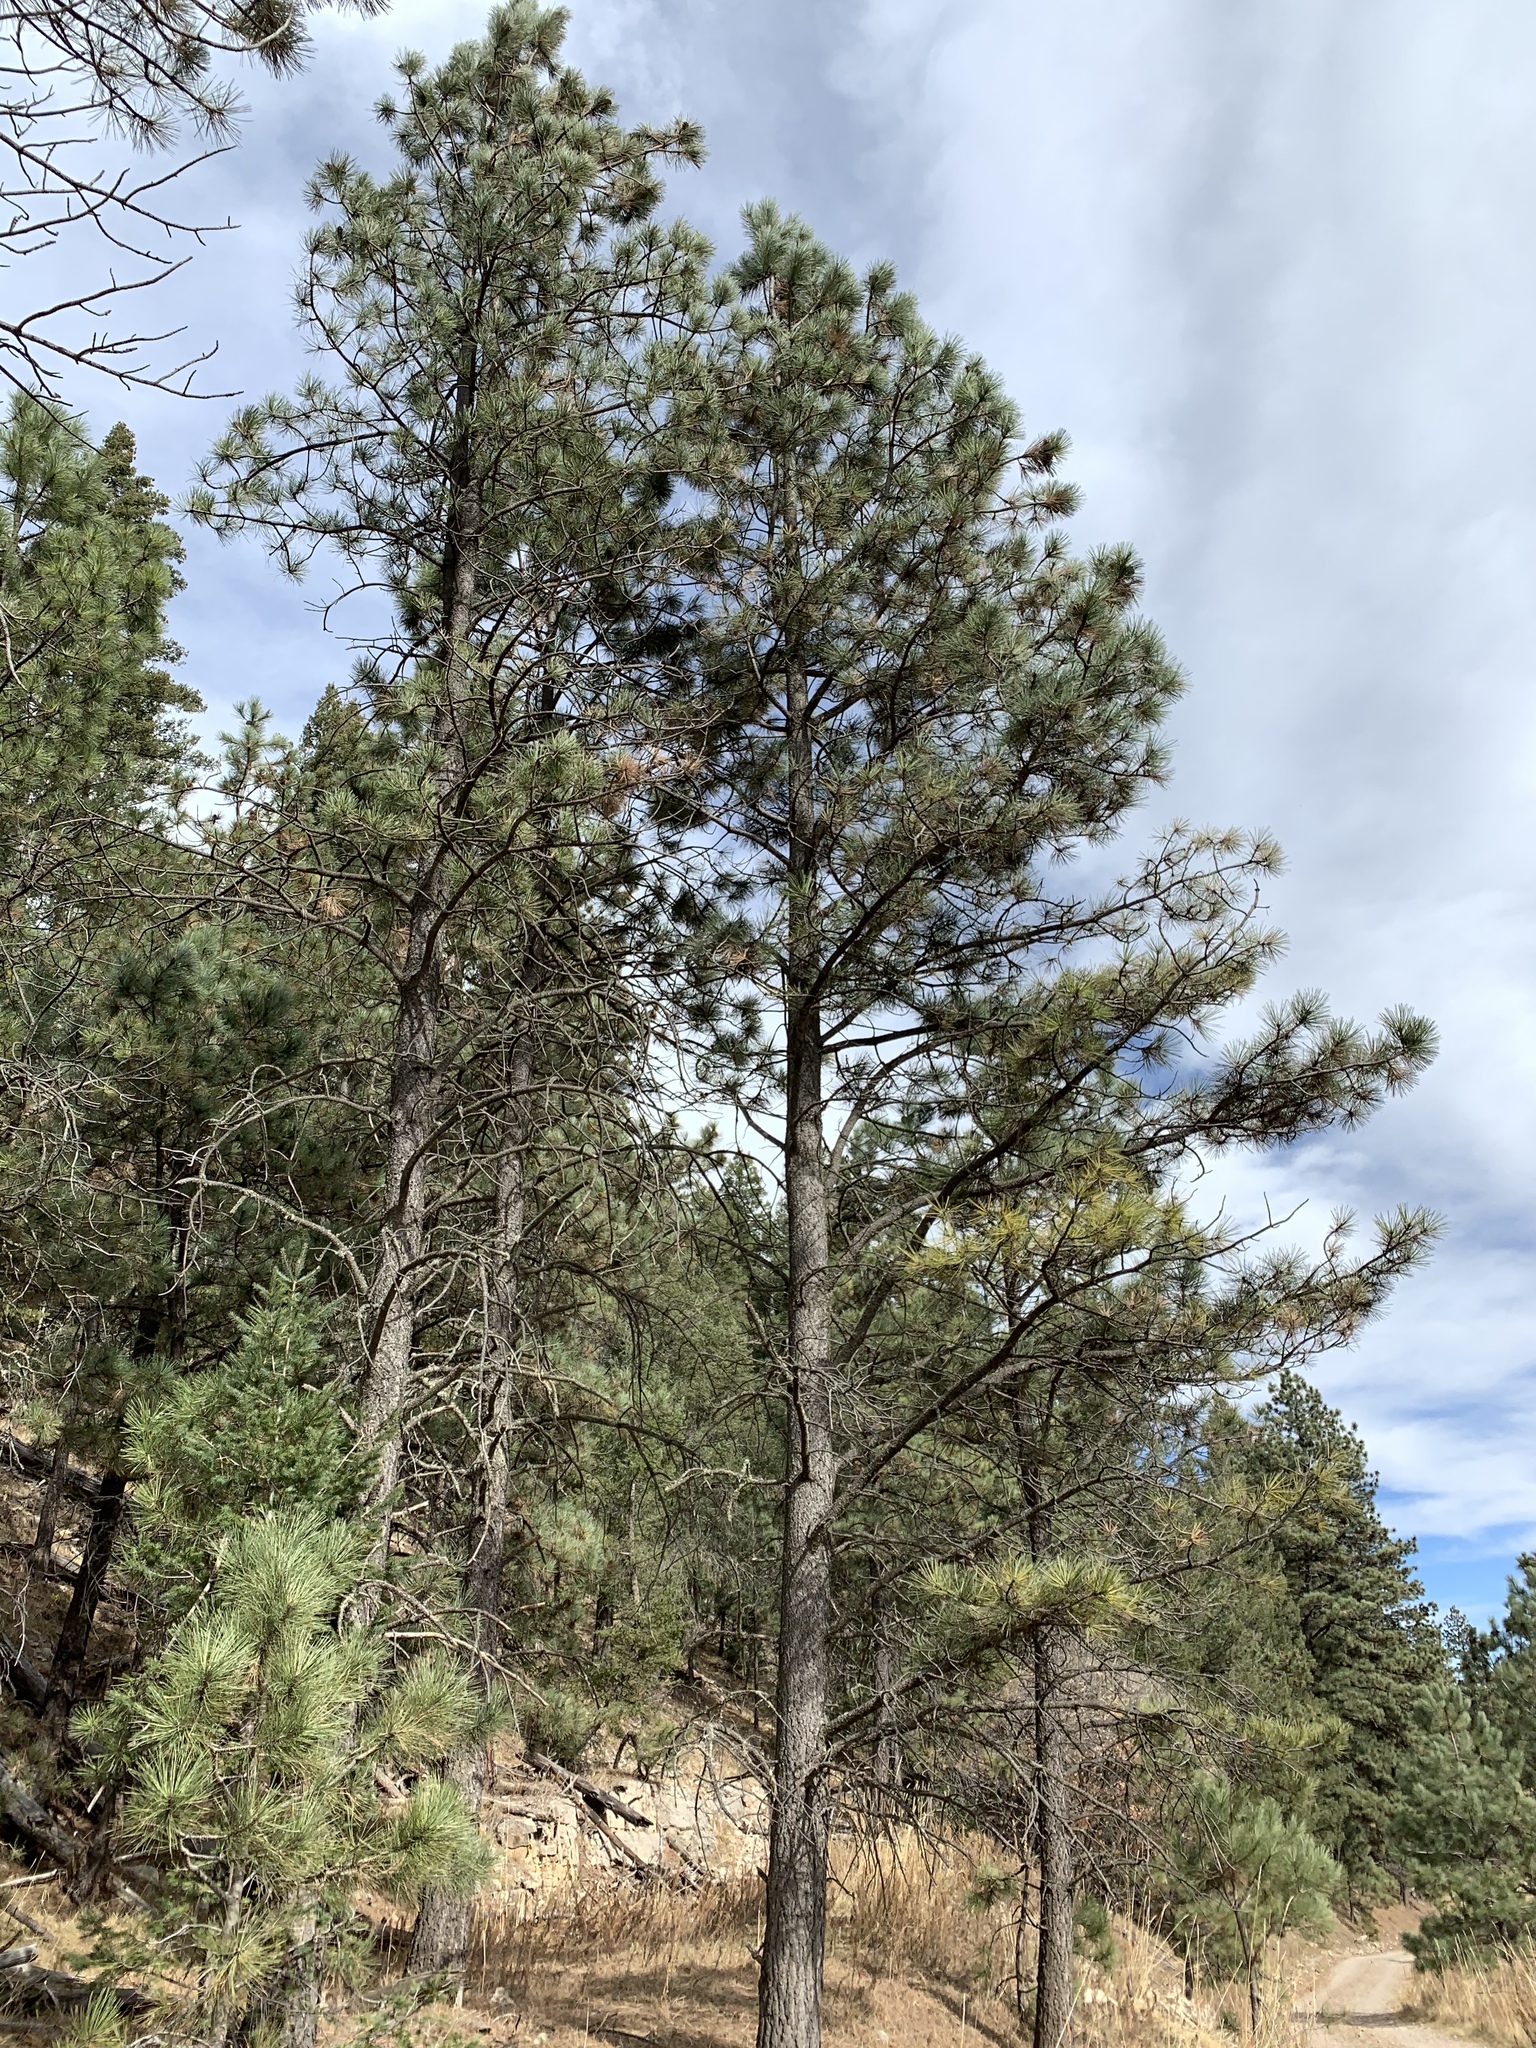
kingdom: Plantae
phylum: Tracheophyta
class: Pinopsida
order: Pinales
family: Pinaceae
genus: Pinus
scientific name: Pinus ponderosa
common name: Western yellow-pine
